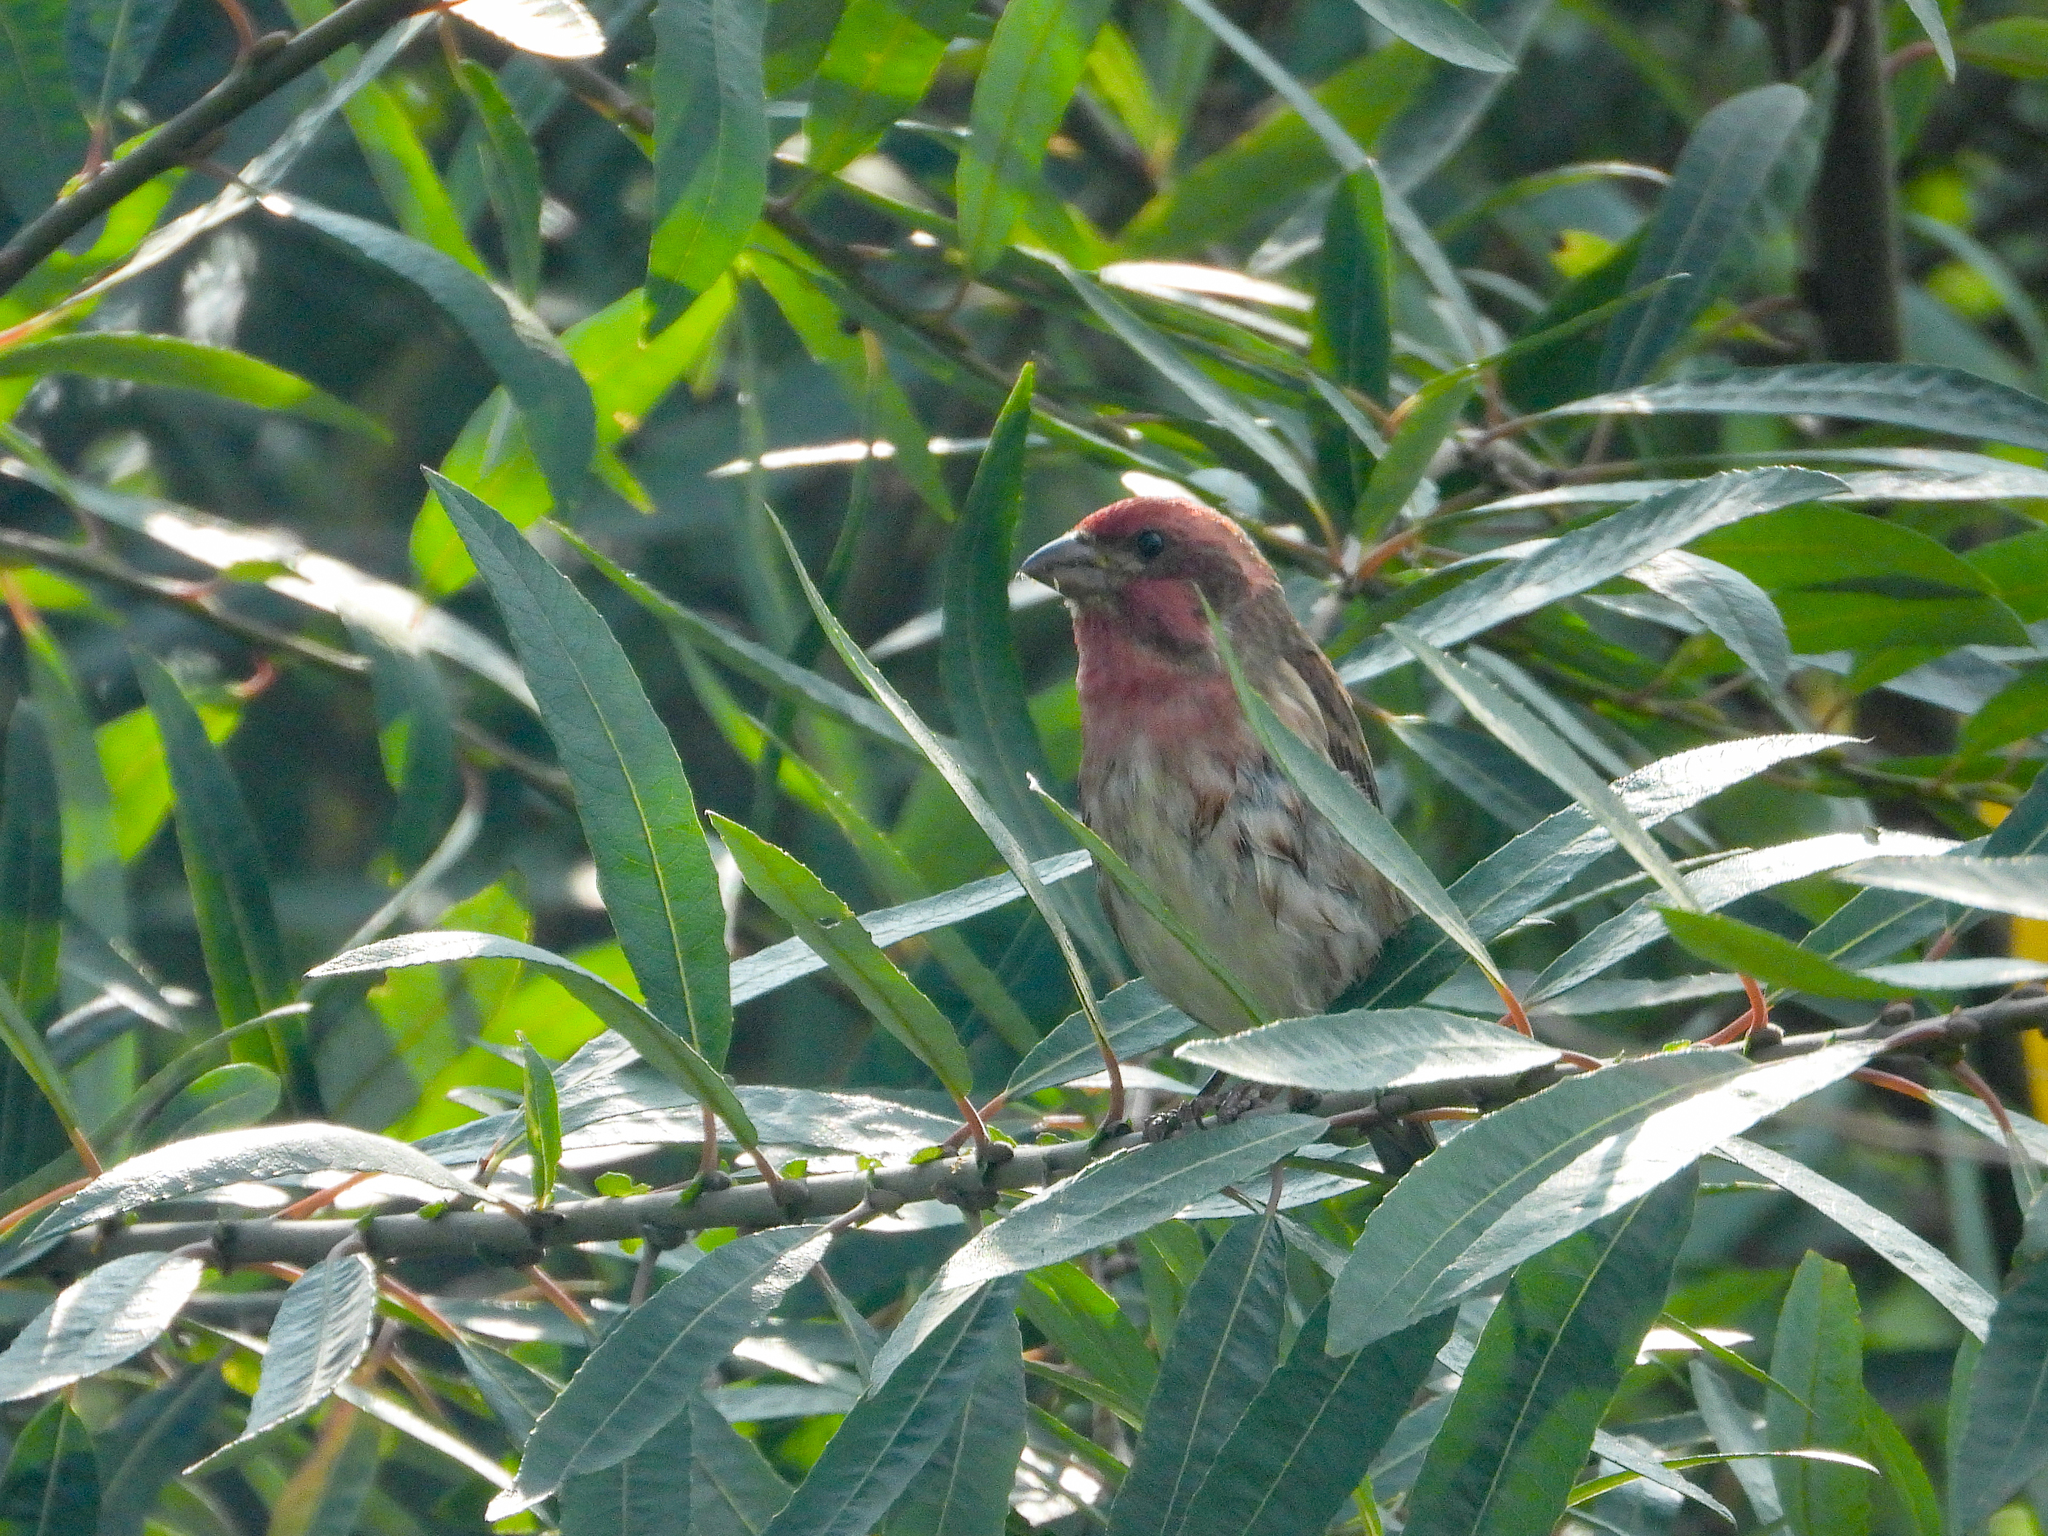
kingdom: Animalia
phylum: Chordata
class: Aves
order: Passeriformes
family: Fringillidae
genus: Haemorhous
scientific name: Haemorhous purpureus
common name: Purple finch
